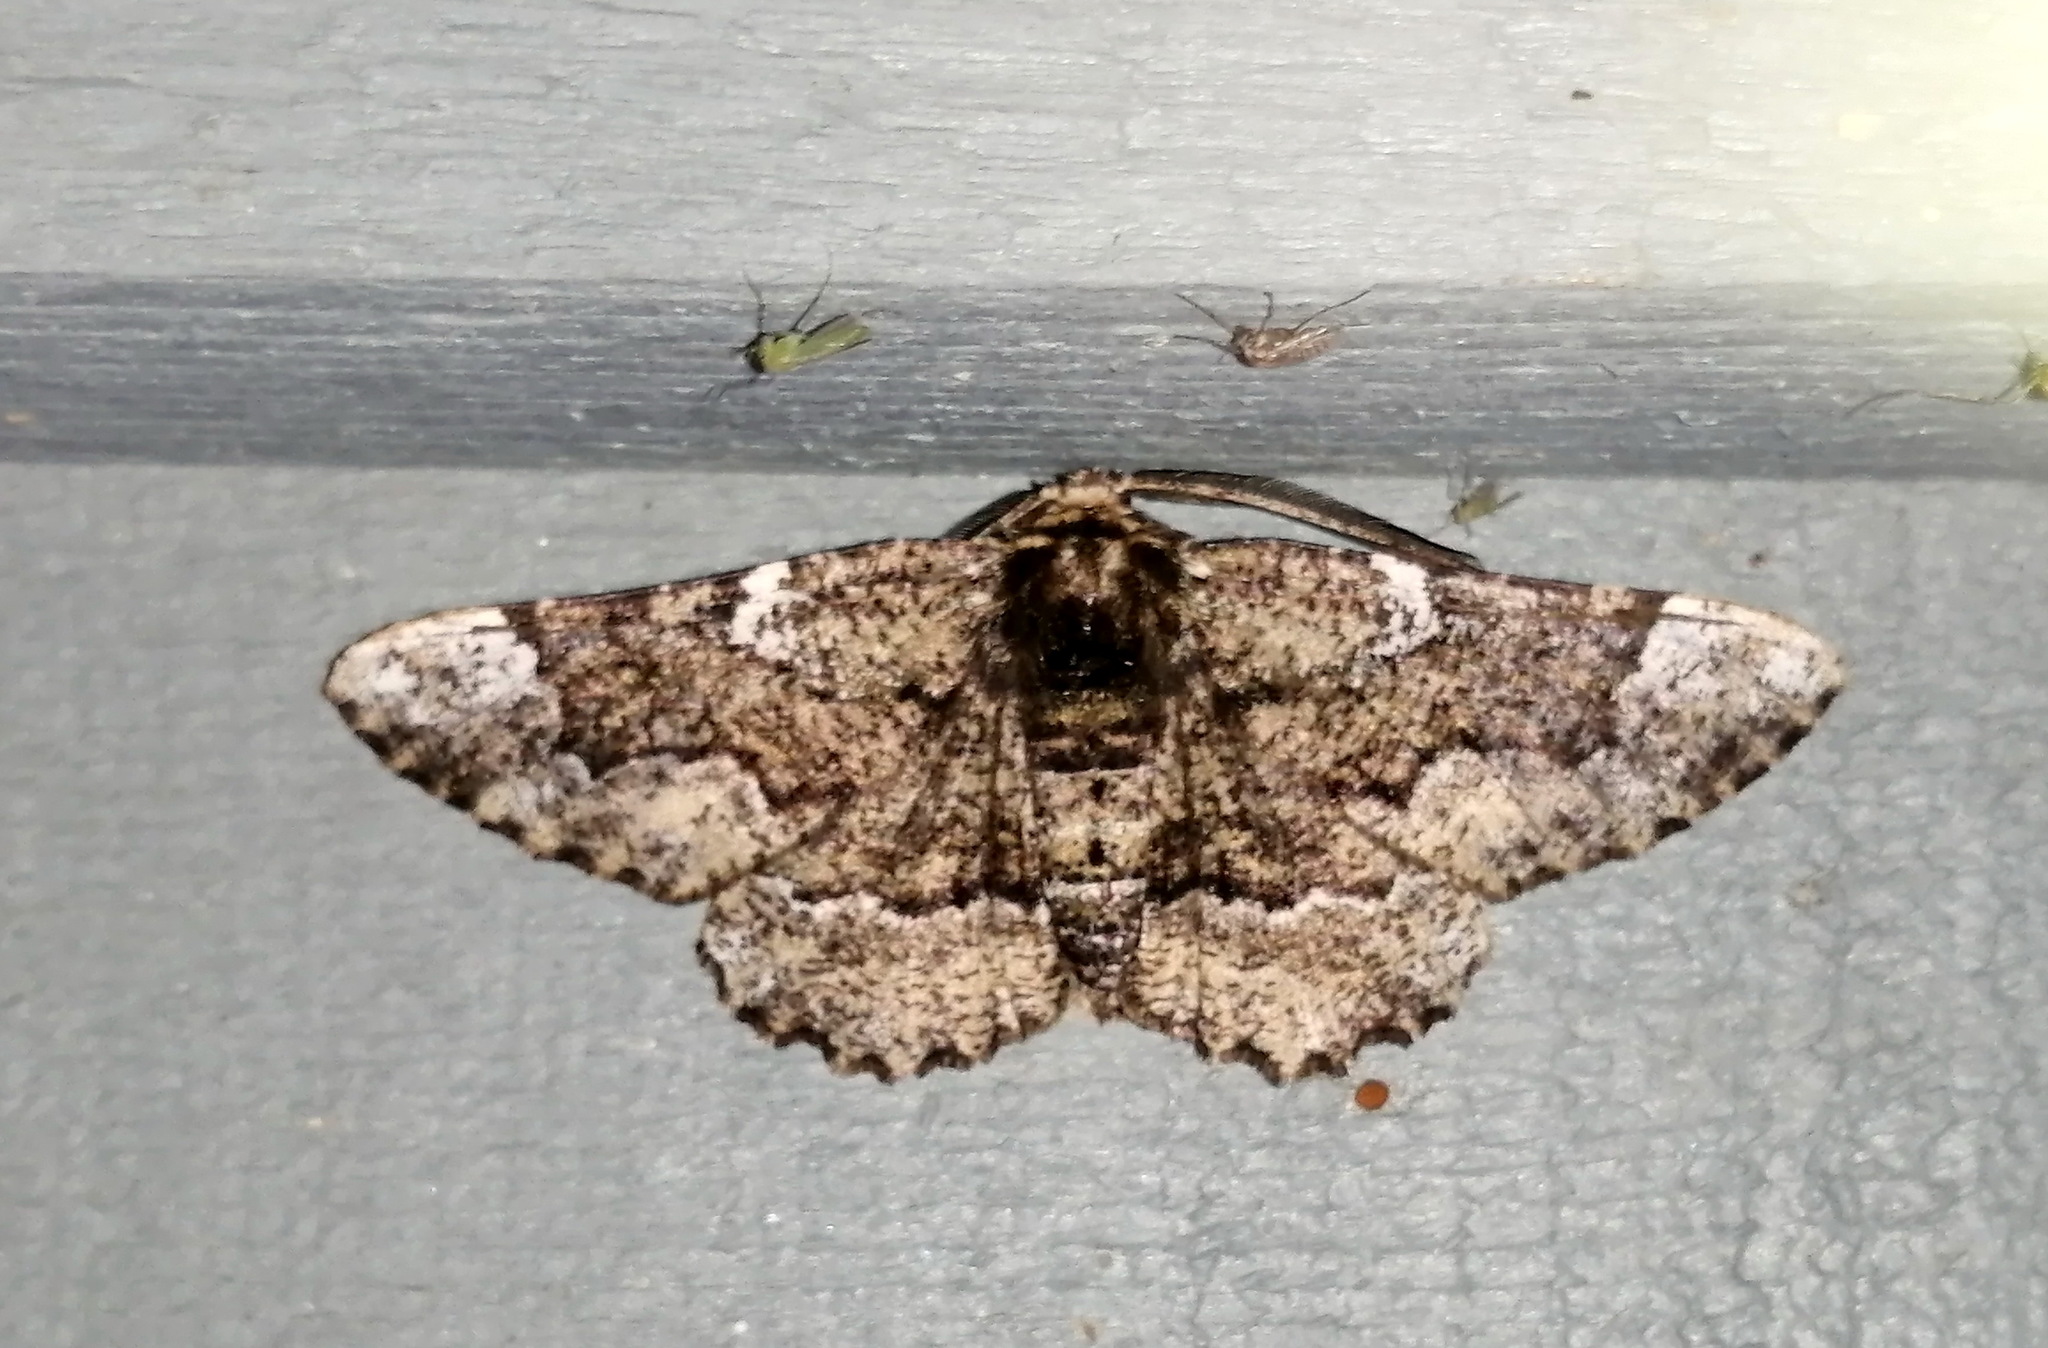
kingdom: Animalia
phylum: Arthropoda
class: Insecta
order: Lepidoptera
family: Geometridae
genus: Phaeoura
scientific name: Phaeoura quernaria
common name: Oak beauty
